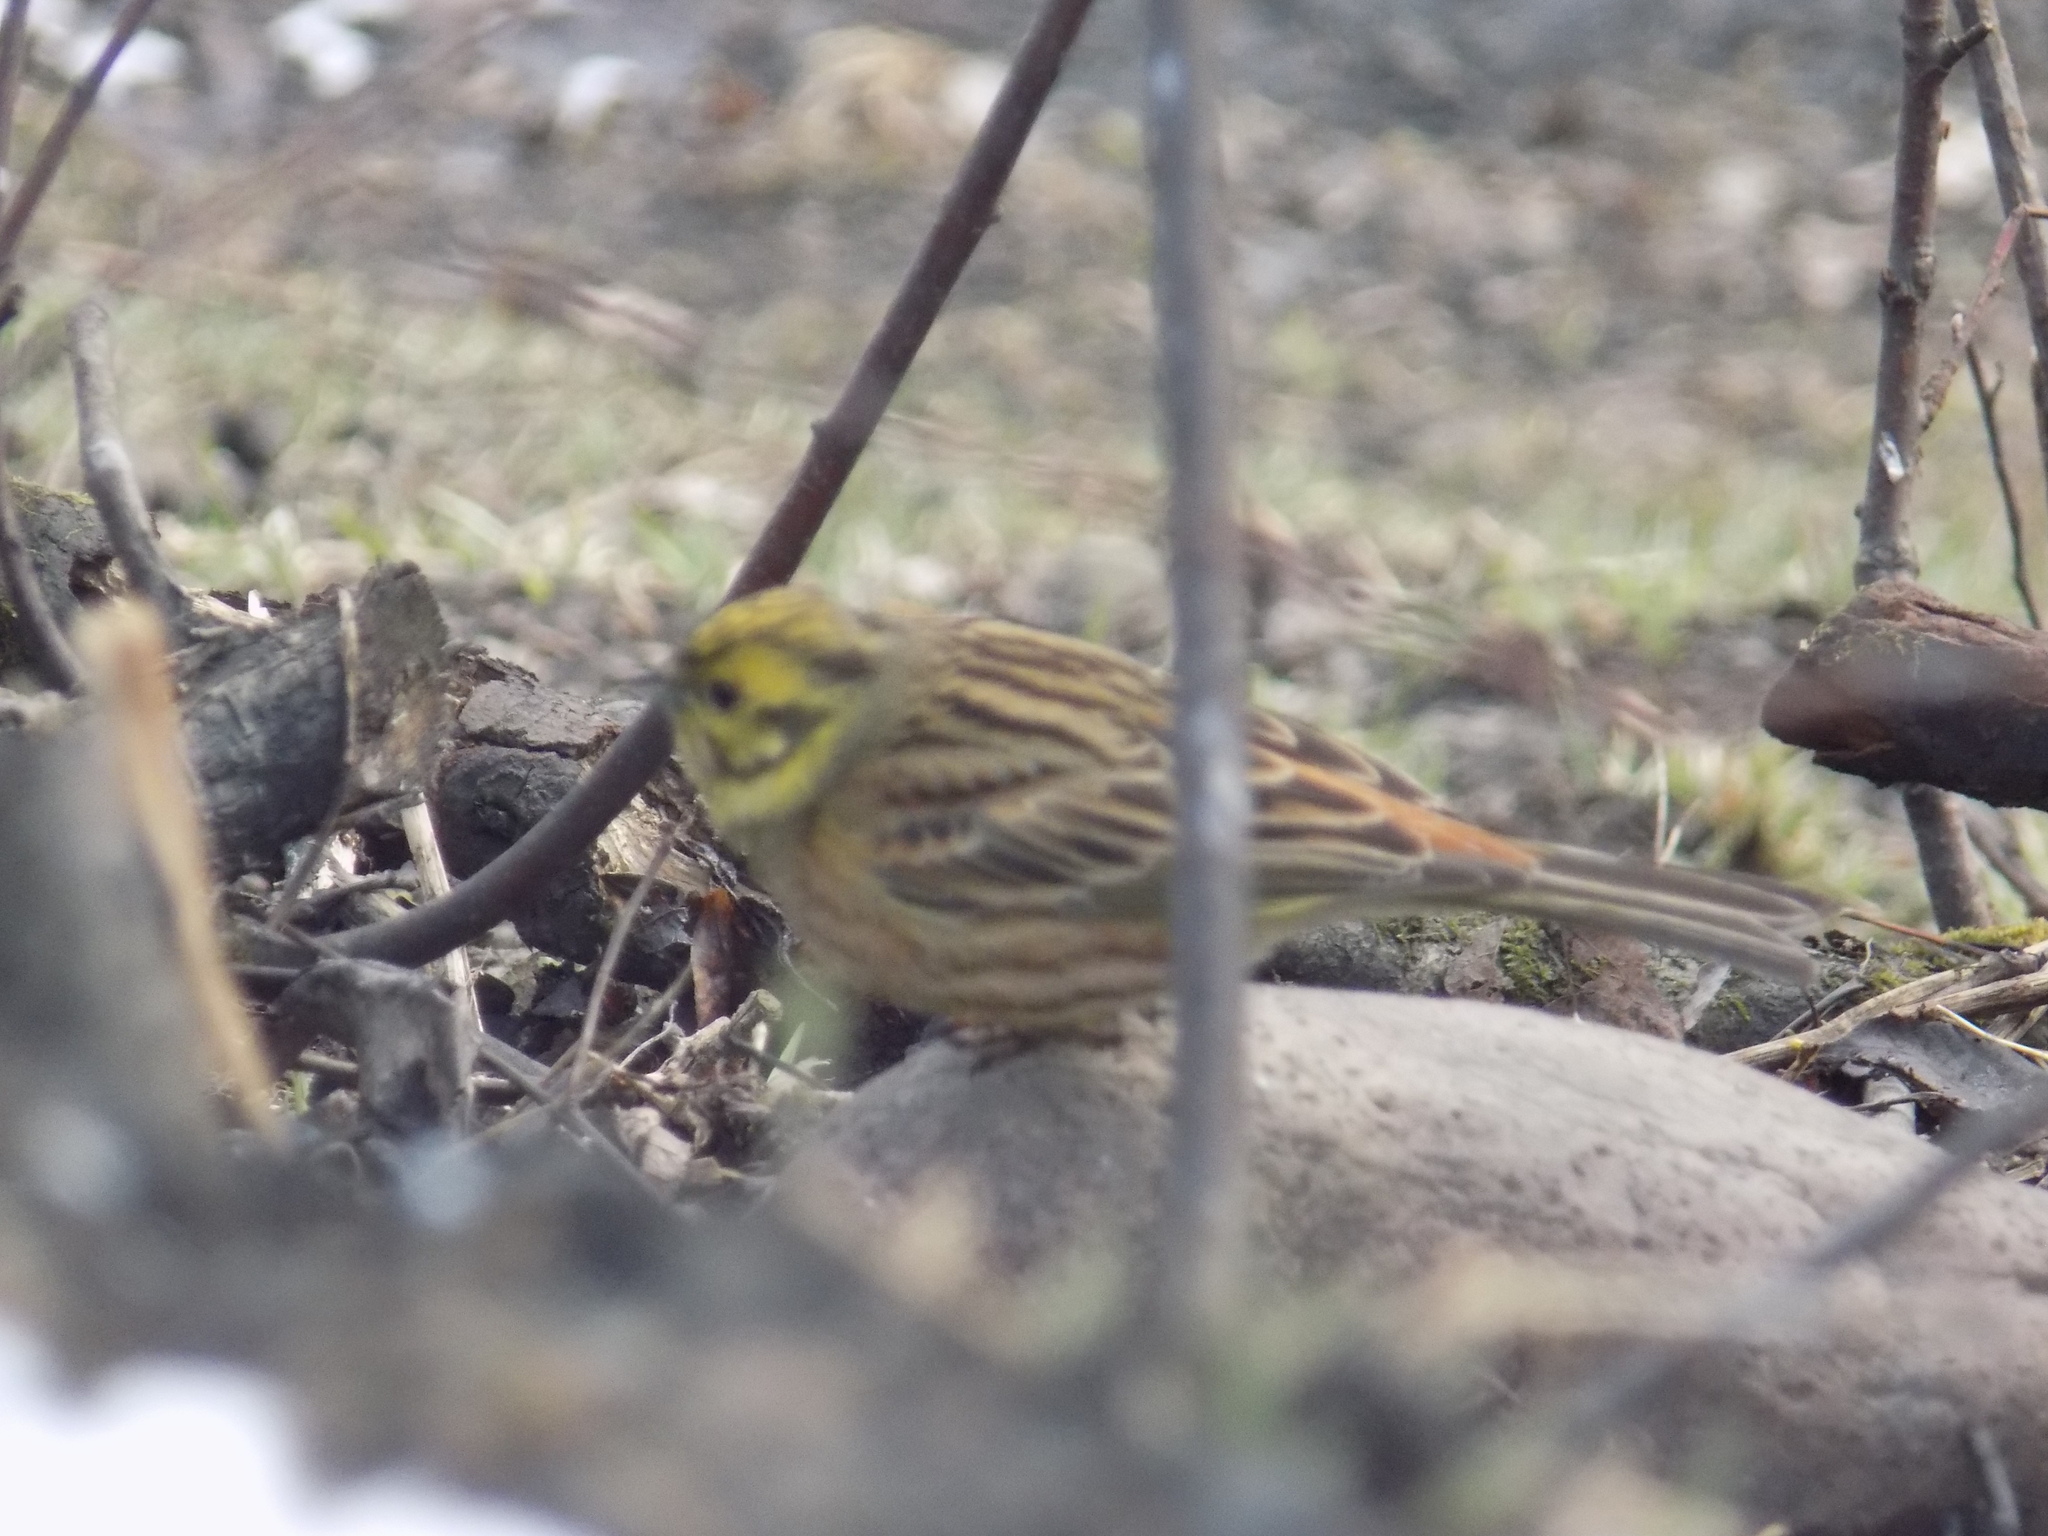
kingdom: Animalia
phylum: Chordata
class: Aves
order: Passeriformes
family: Emberizidae
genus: Emberiza
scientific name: Emberiza citrinella
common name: Yellowhammer
